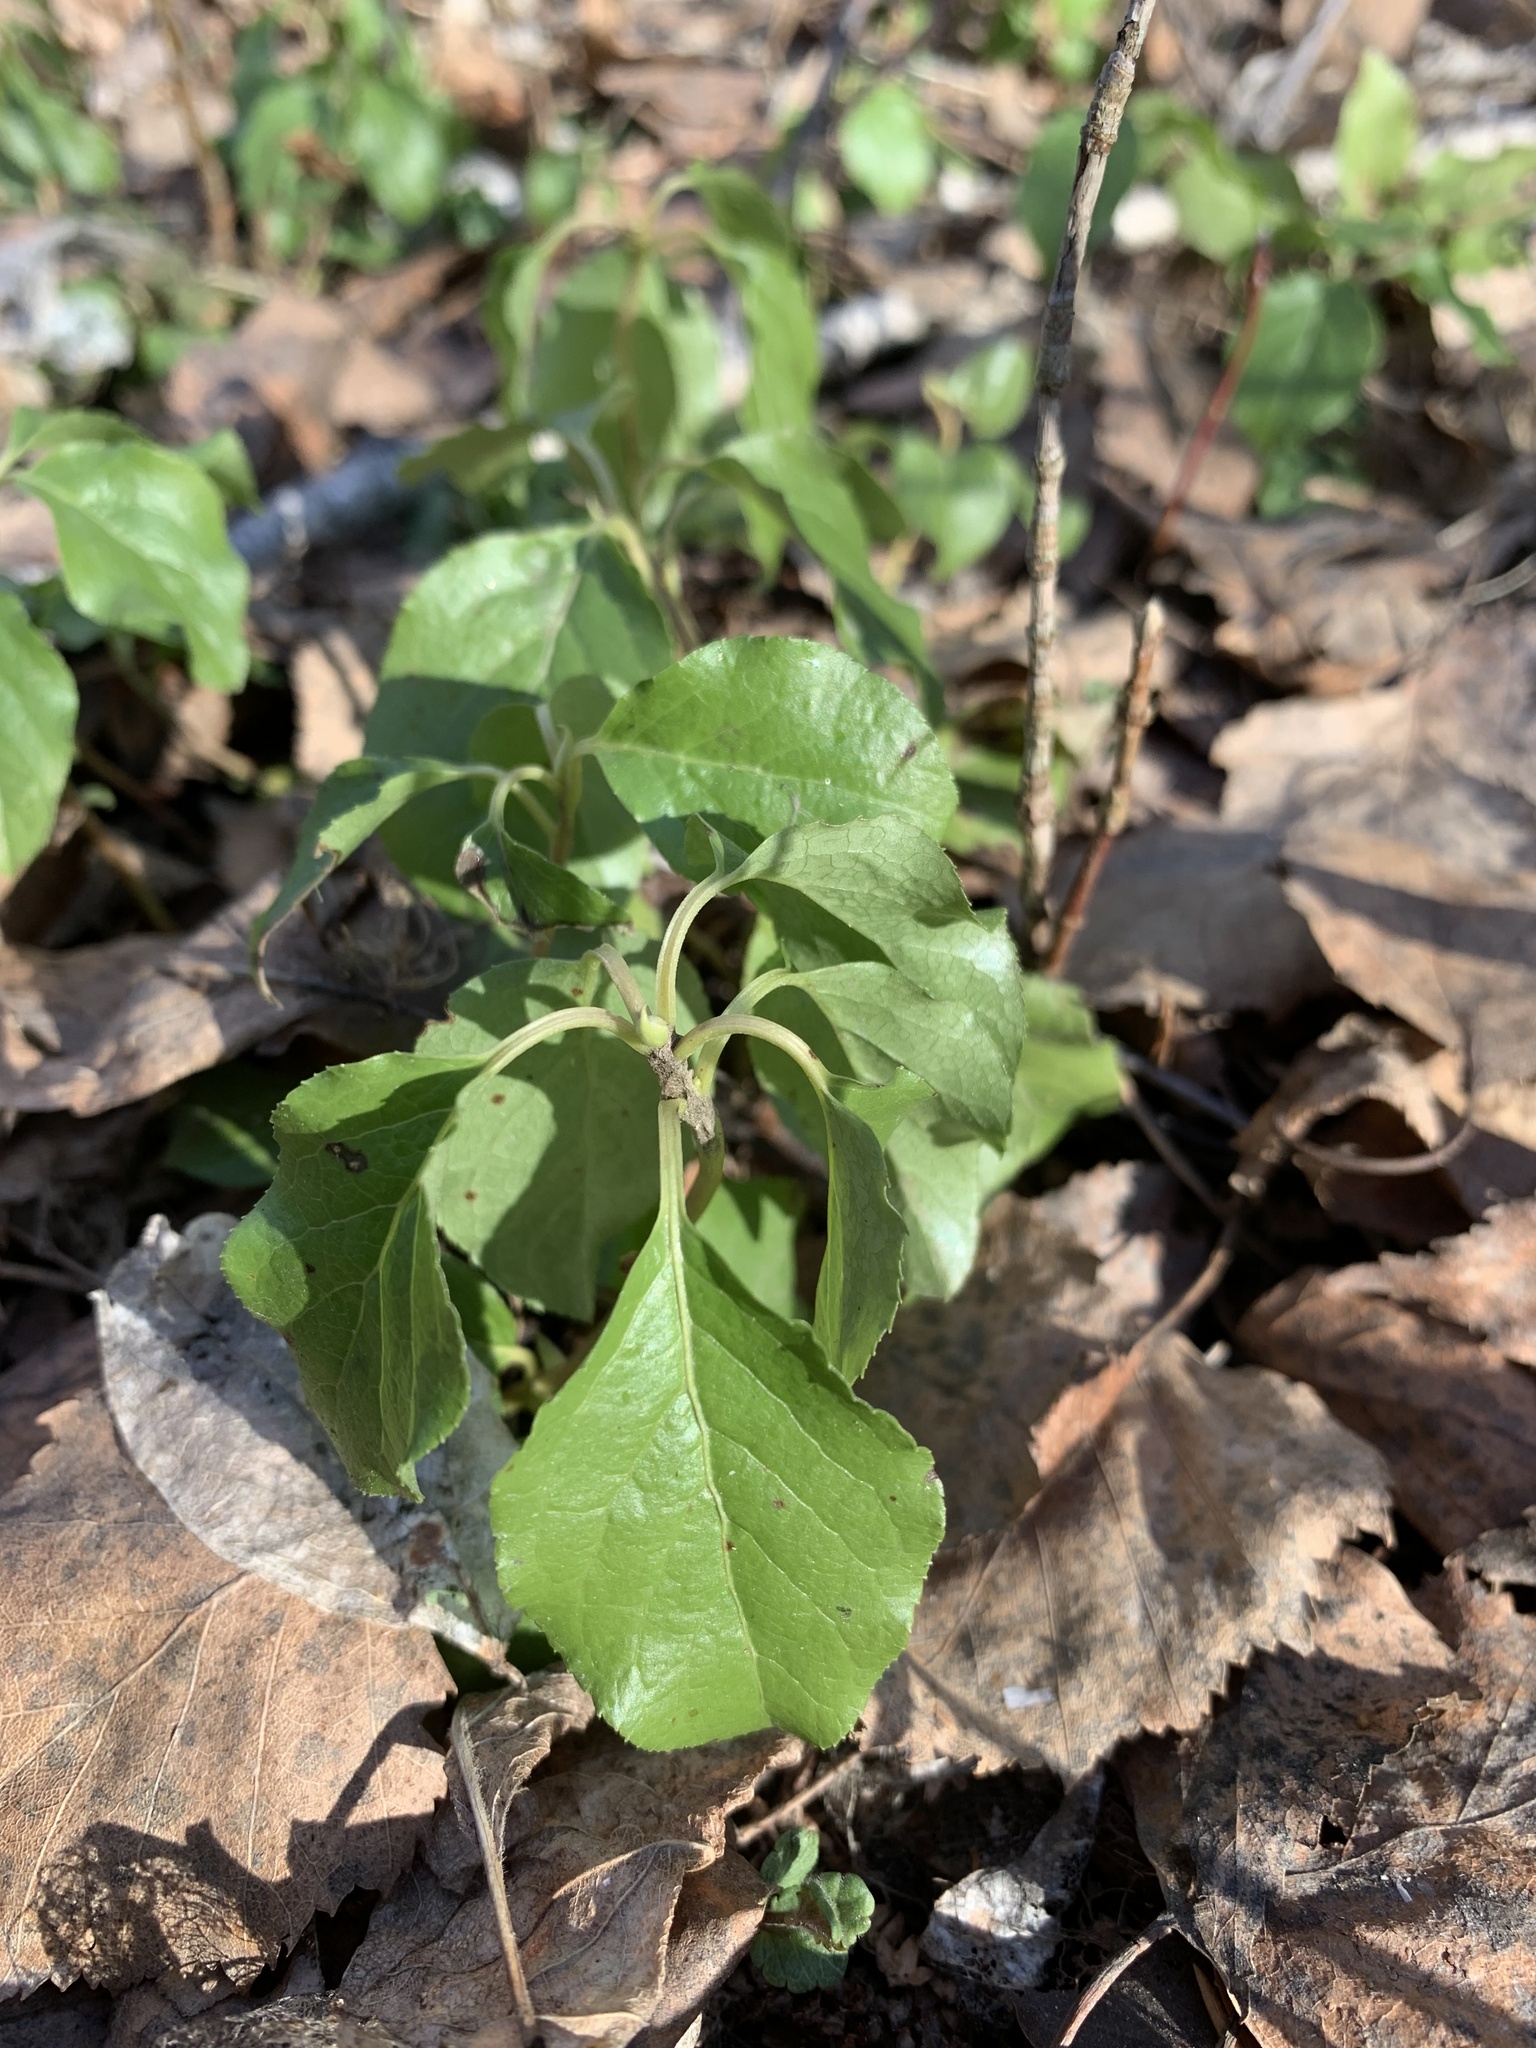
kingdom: Plantae
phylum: Tracheophyta
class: Magnoliopsida
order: Ericales
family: Ericaceae
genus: Orthilia
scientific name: Orthilia secunda
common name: One-sided orthilia
